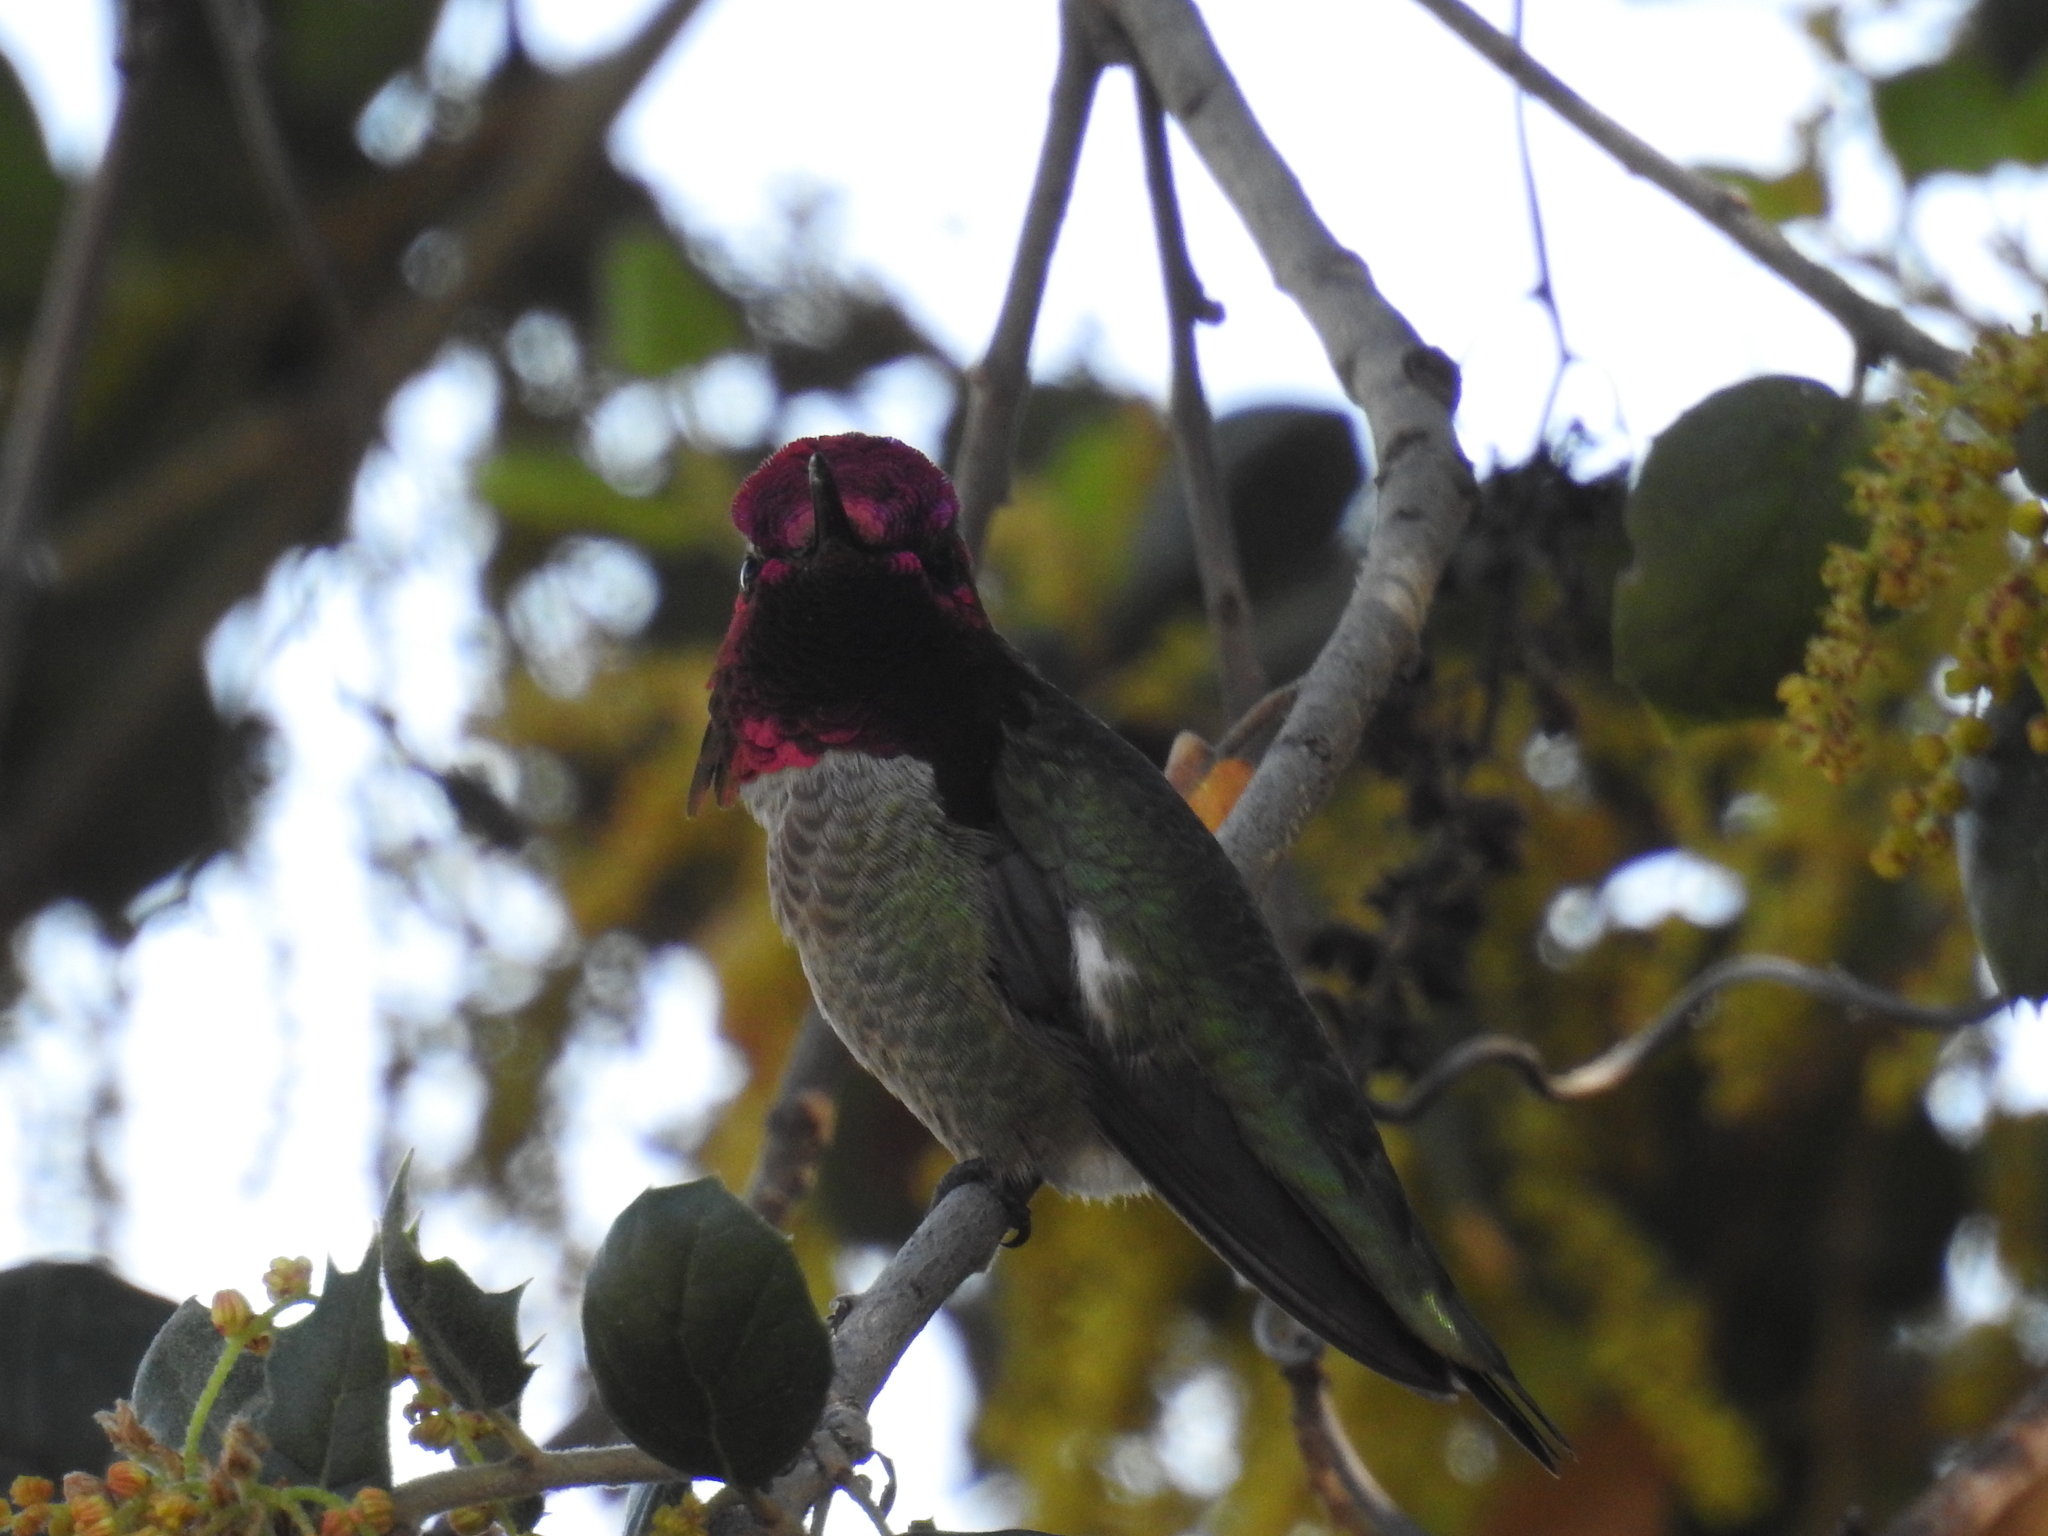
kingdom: Animalia
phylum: Chordata
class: Aves
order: Apodiformes
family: Trochilidae
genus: Calypte
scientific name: Calypte anna
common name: Anna's hummingbird
